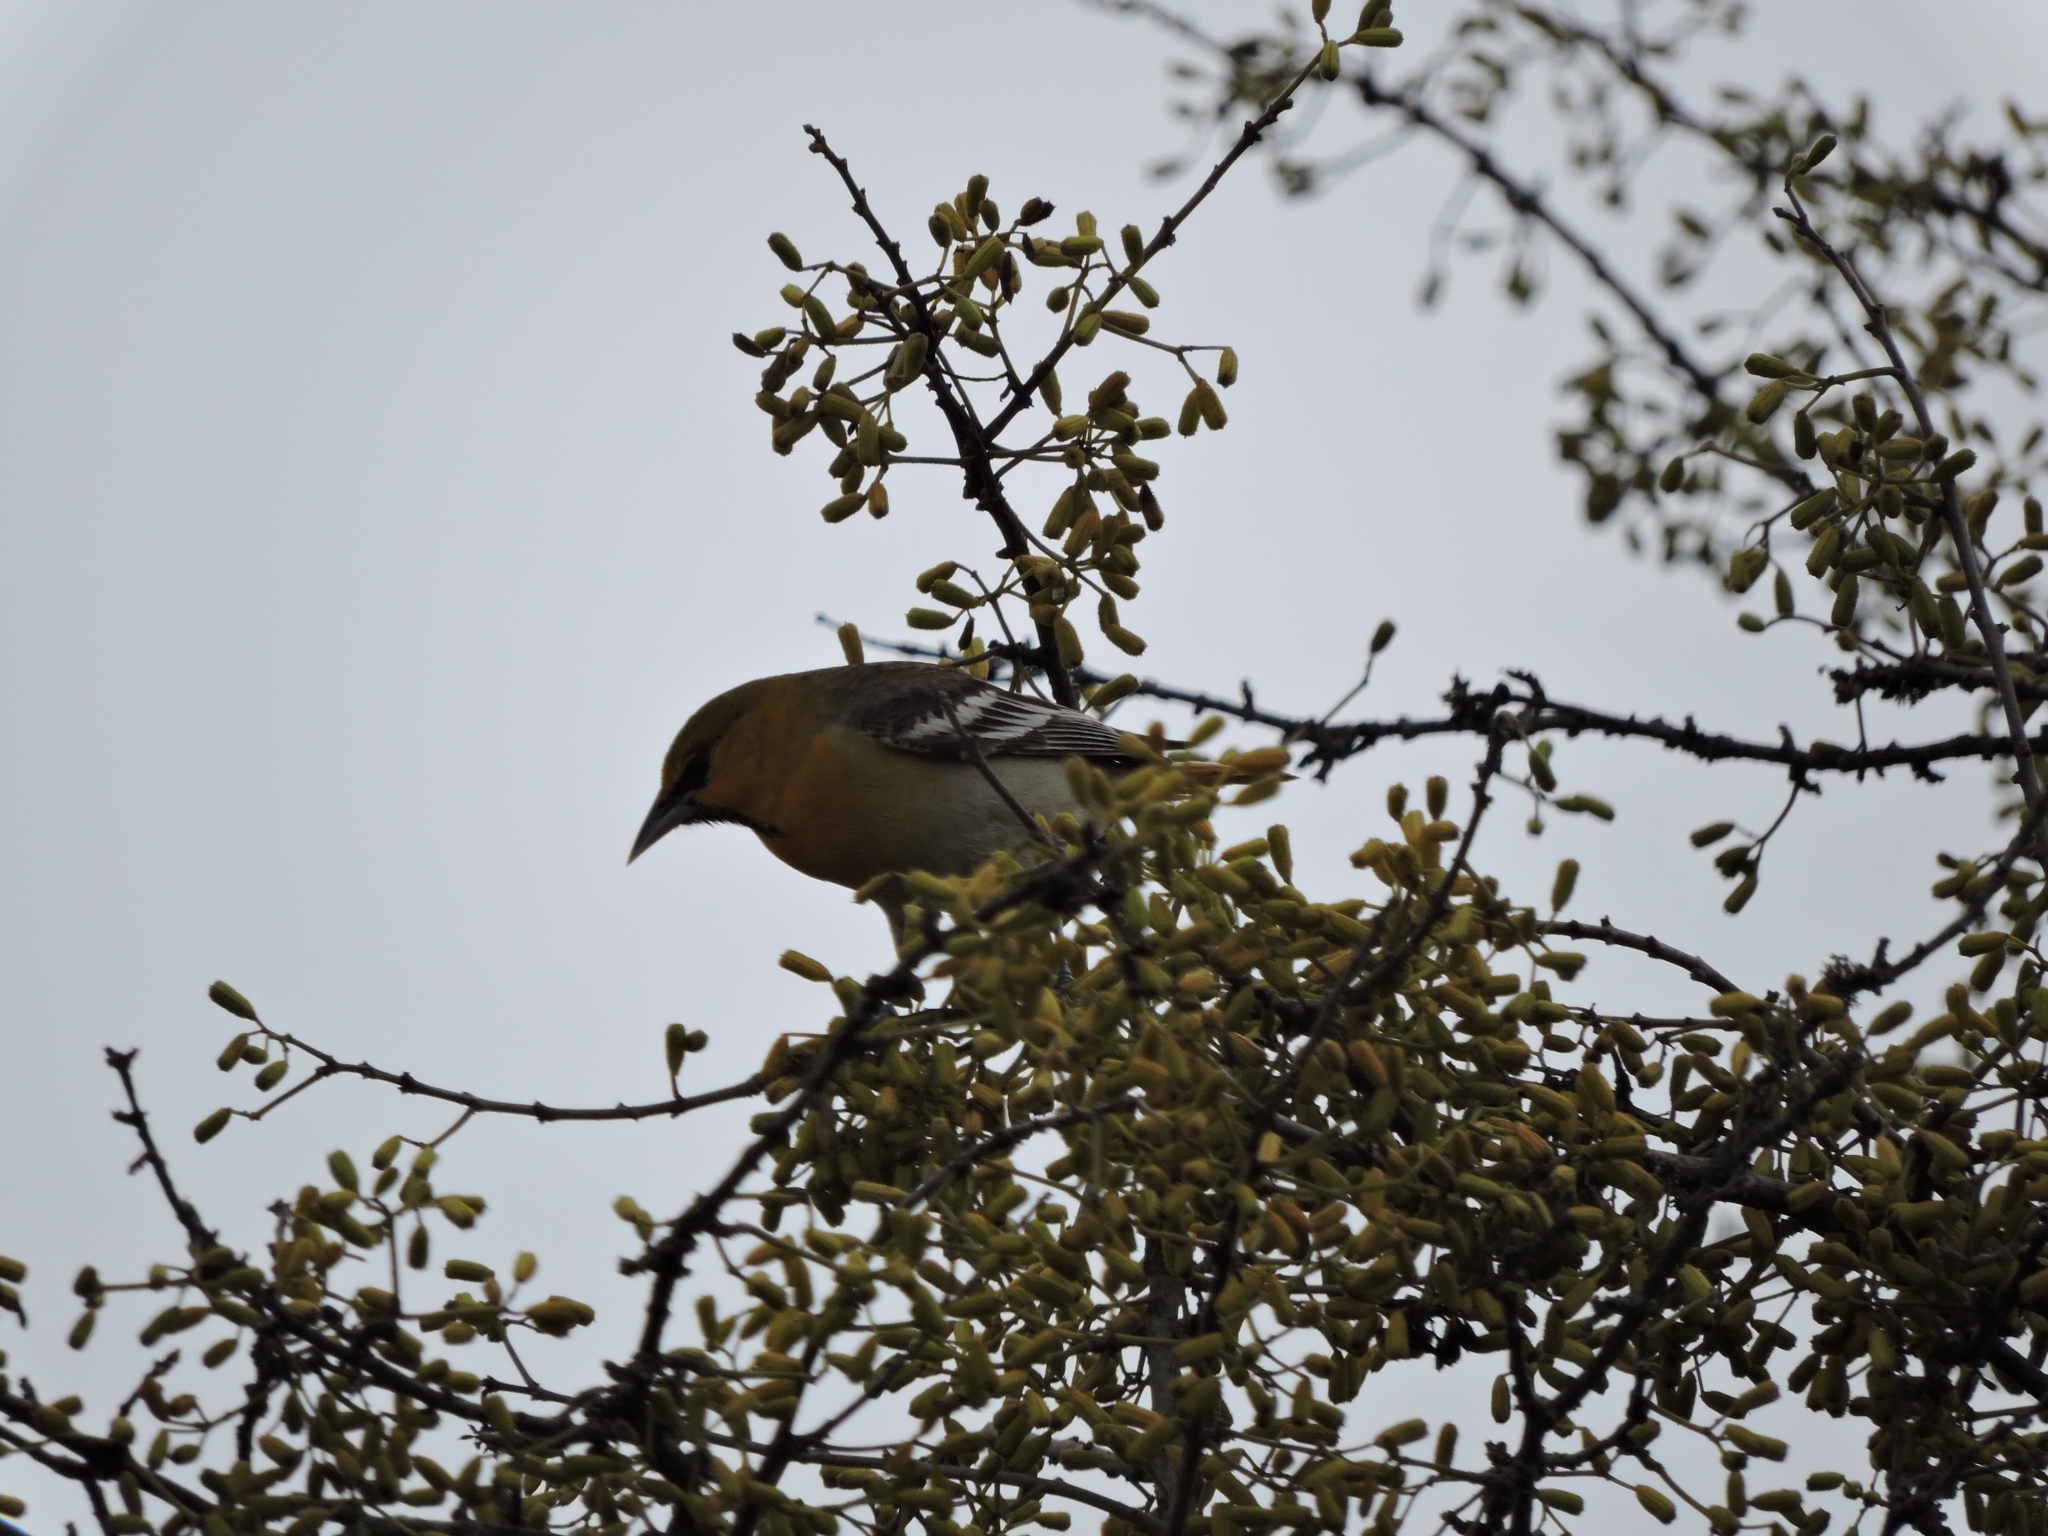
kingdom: Animalia
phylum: Chordata
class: Aves
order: Passeriformes
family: Icteridae
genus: Icterus
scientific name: Icterus bullockii
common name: Bullock's oriole
